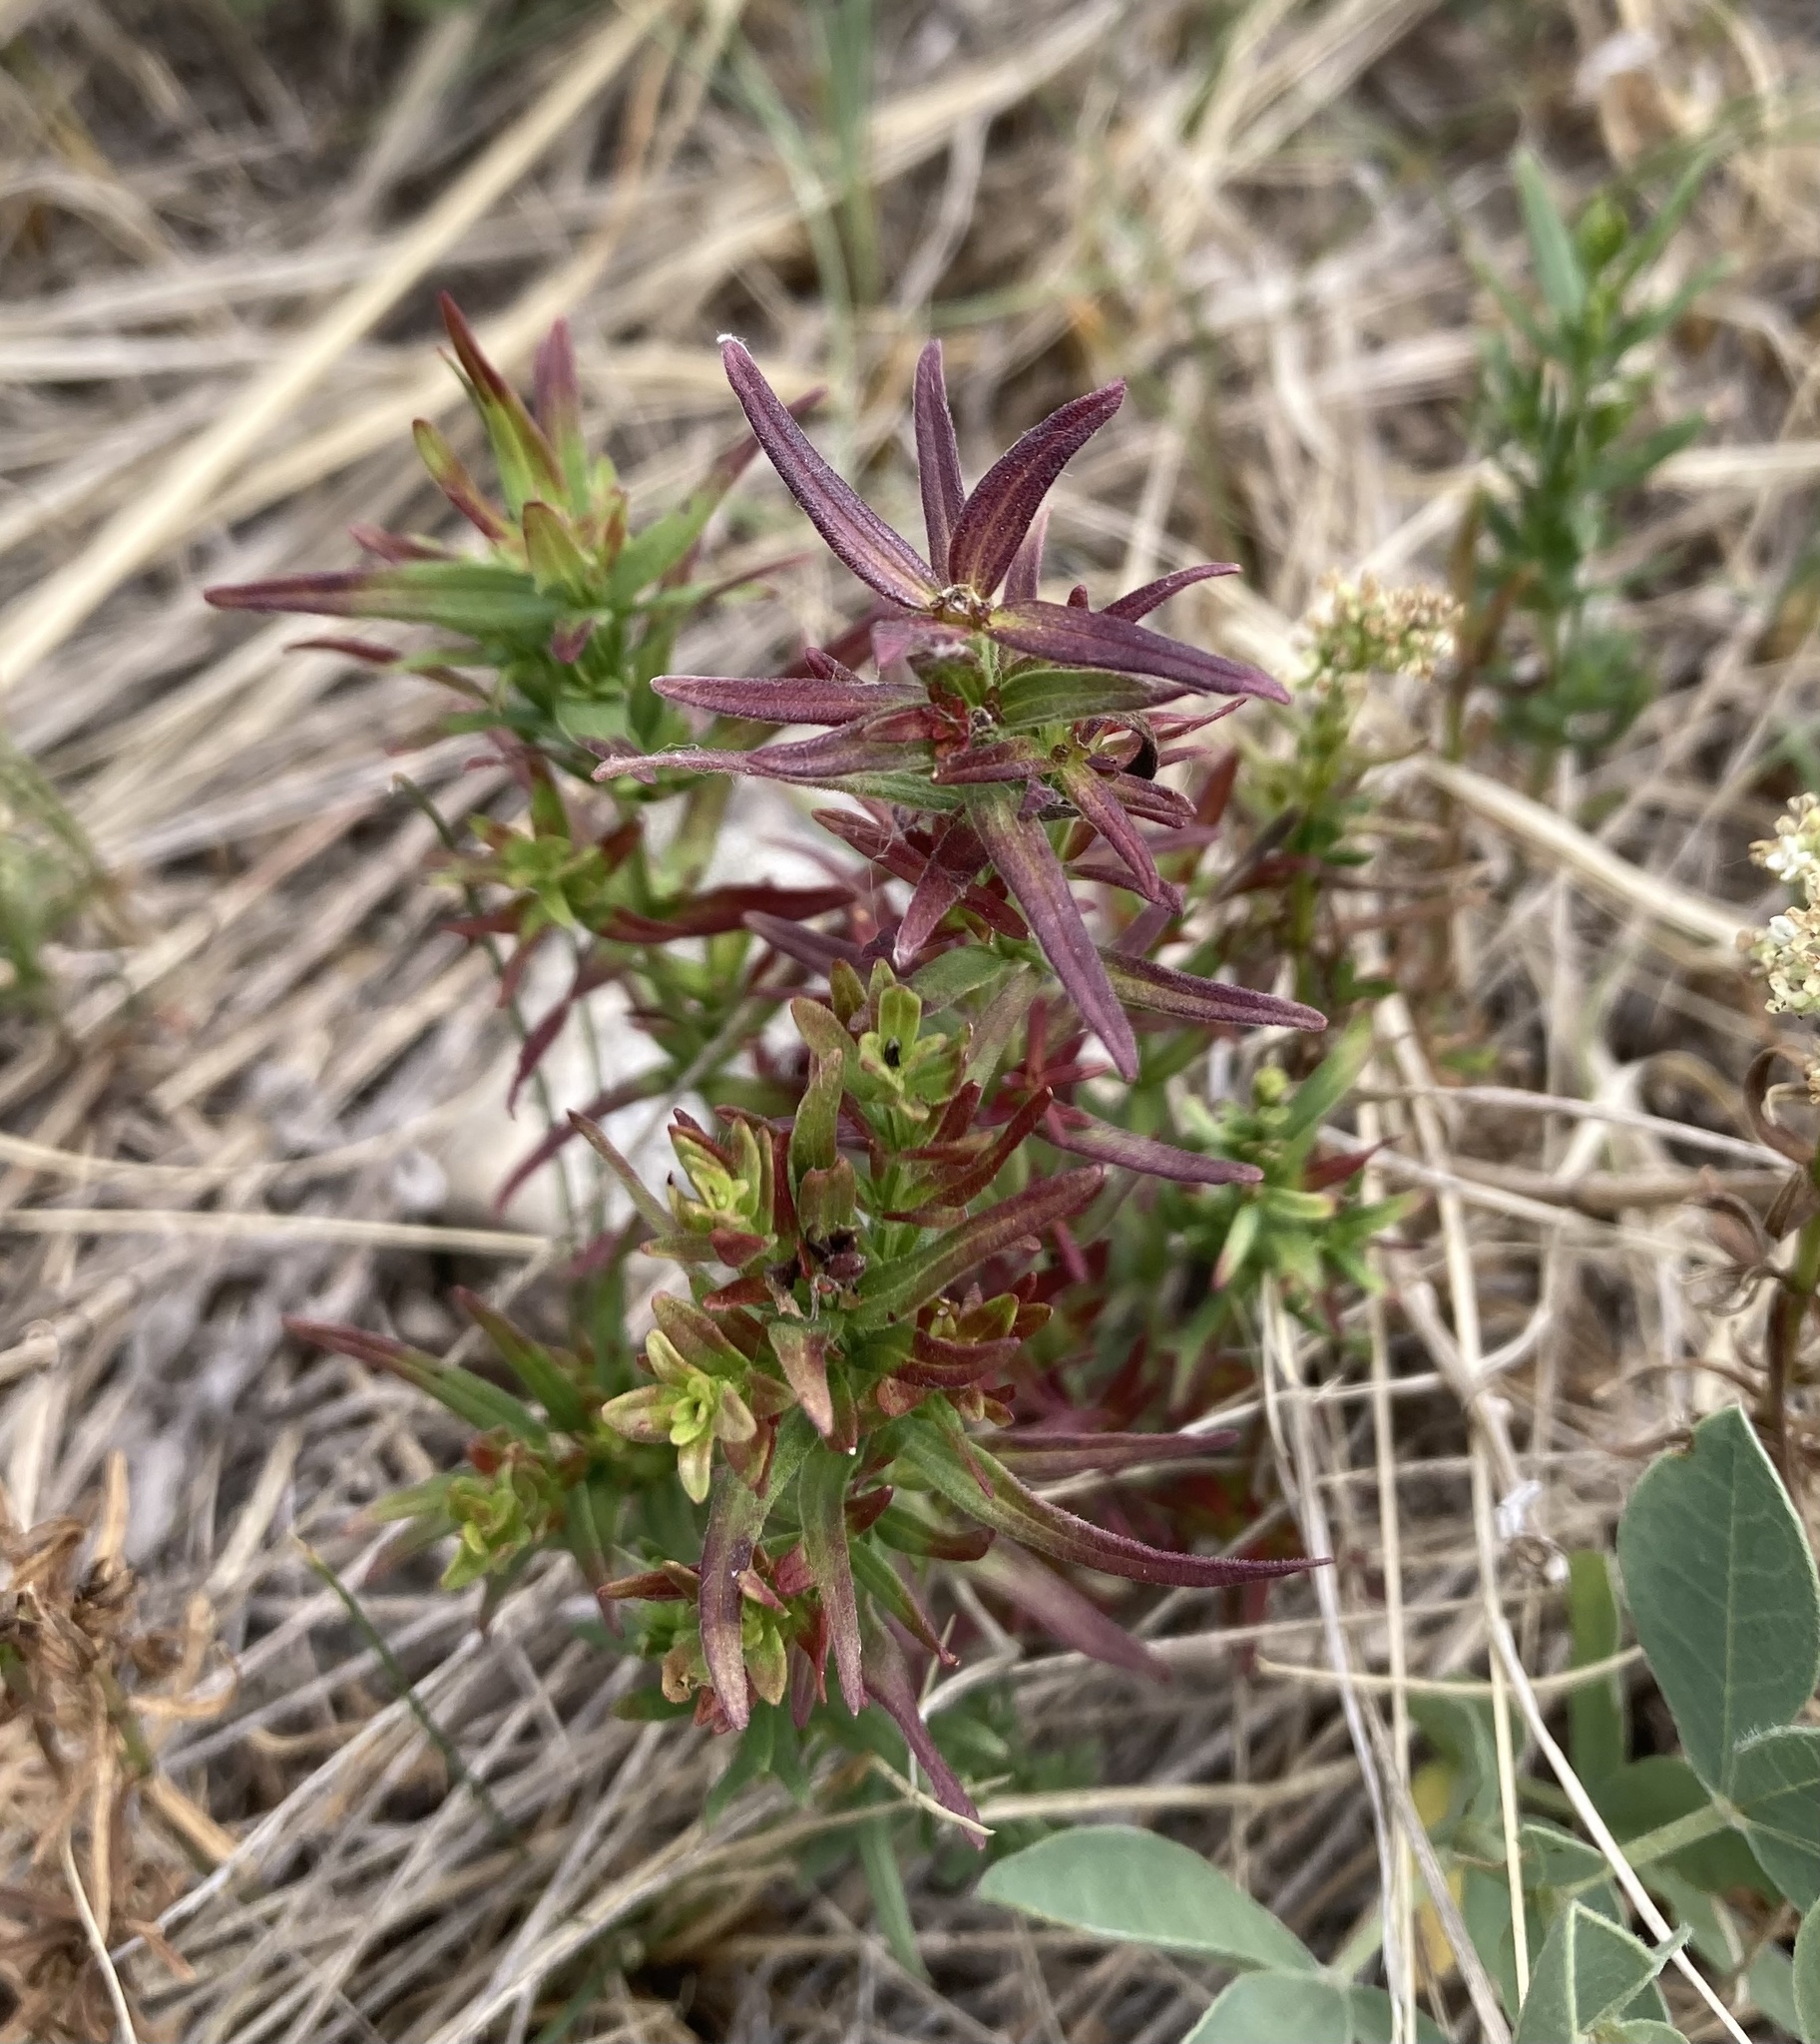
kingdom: Plantae
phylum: Tracheophyta
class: Magnoliopsida
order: Gentianales
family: Rubiaceae
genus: Galium
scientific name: Galium boreale
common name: Northern bedstraw
